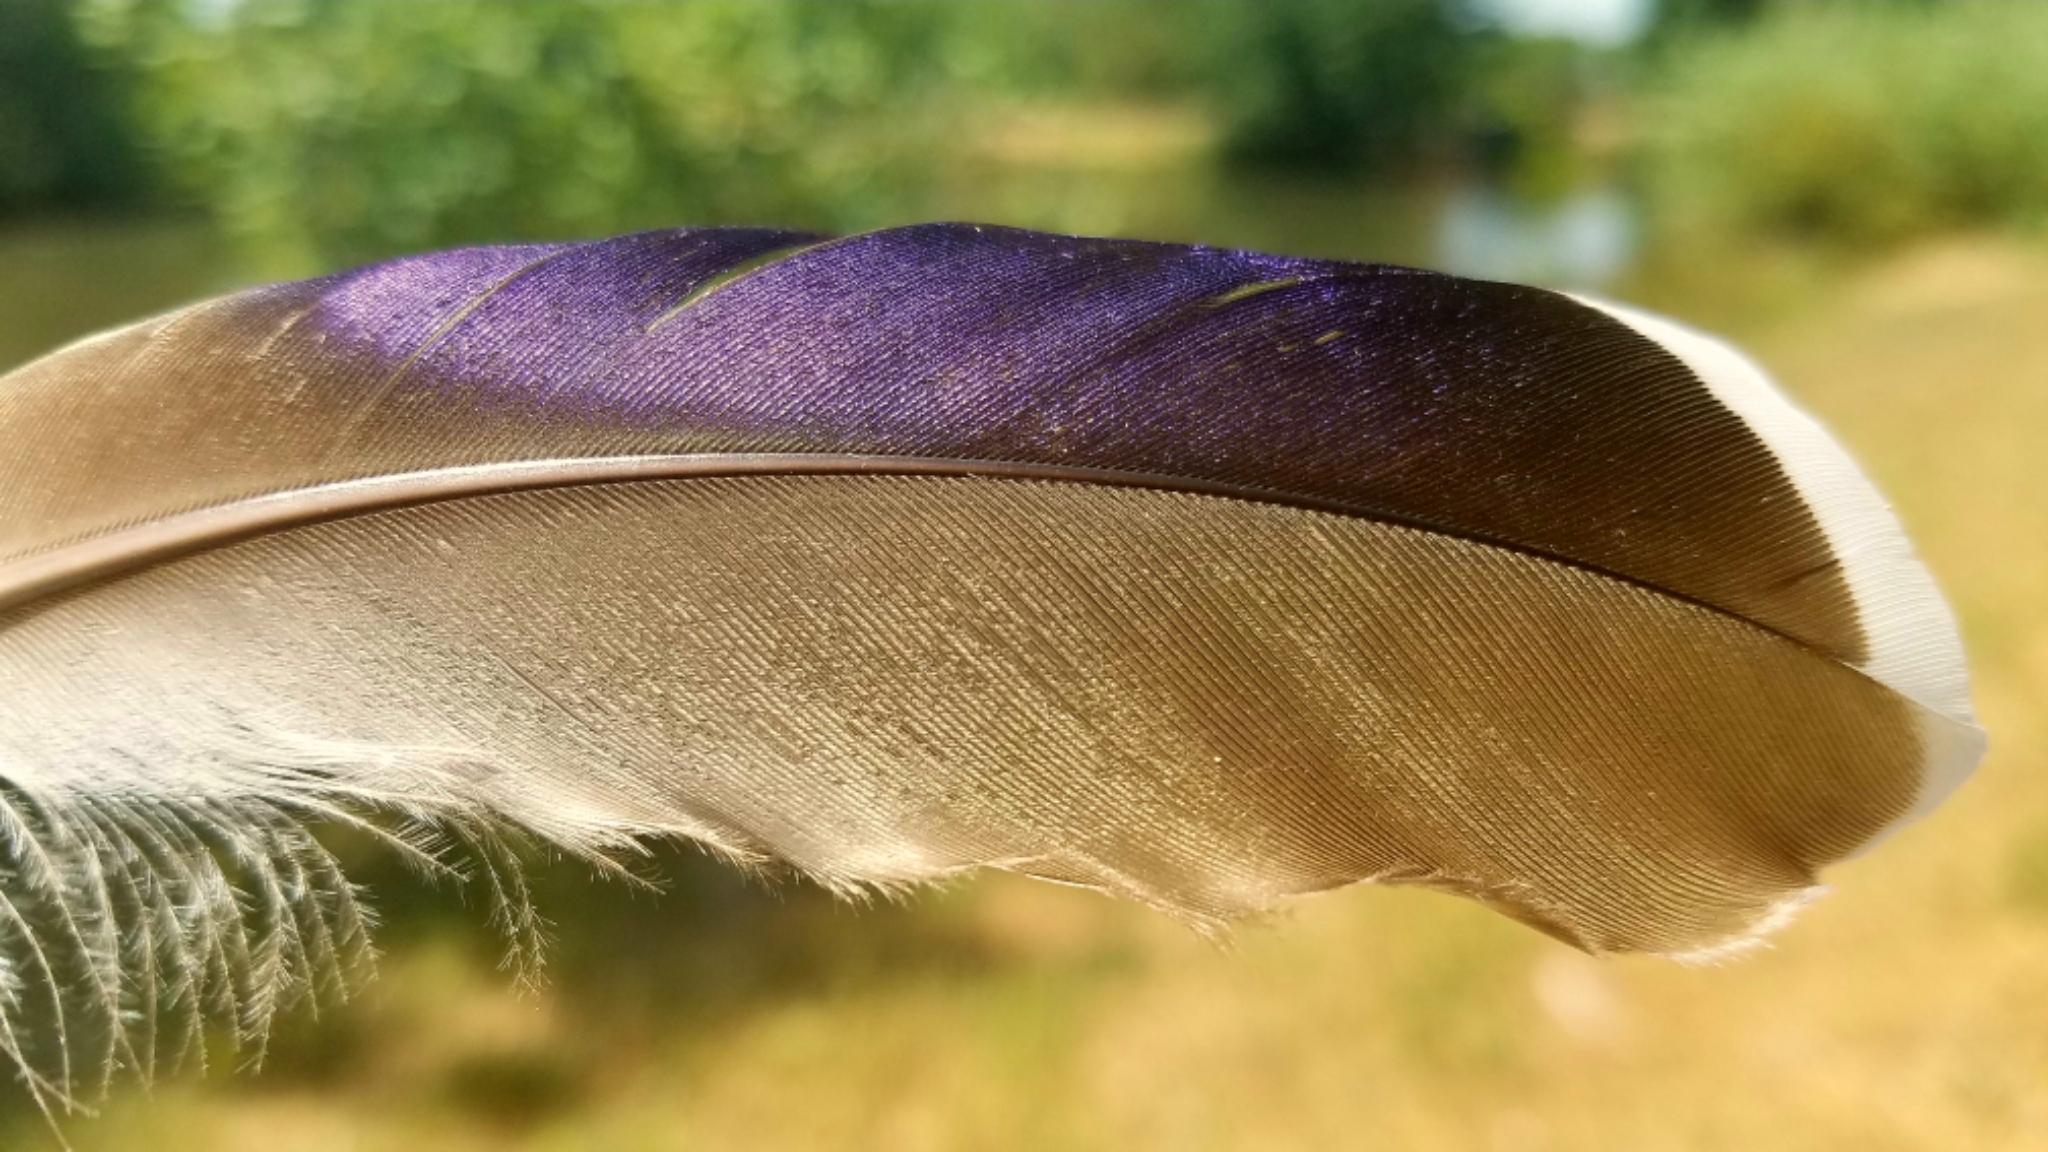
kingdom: Animalia
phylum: Chordata
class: Aves
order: Anseriformes
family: Anatidae
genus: Anas
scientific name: Anas platyrhynchos
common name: Mallard
